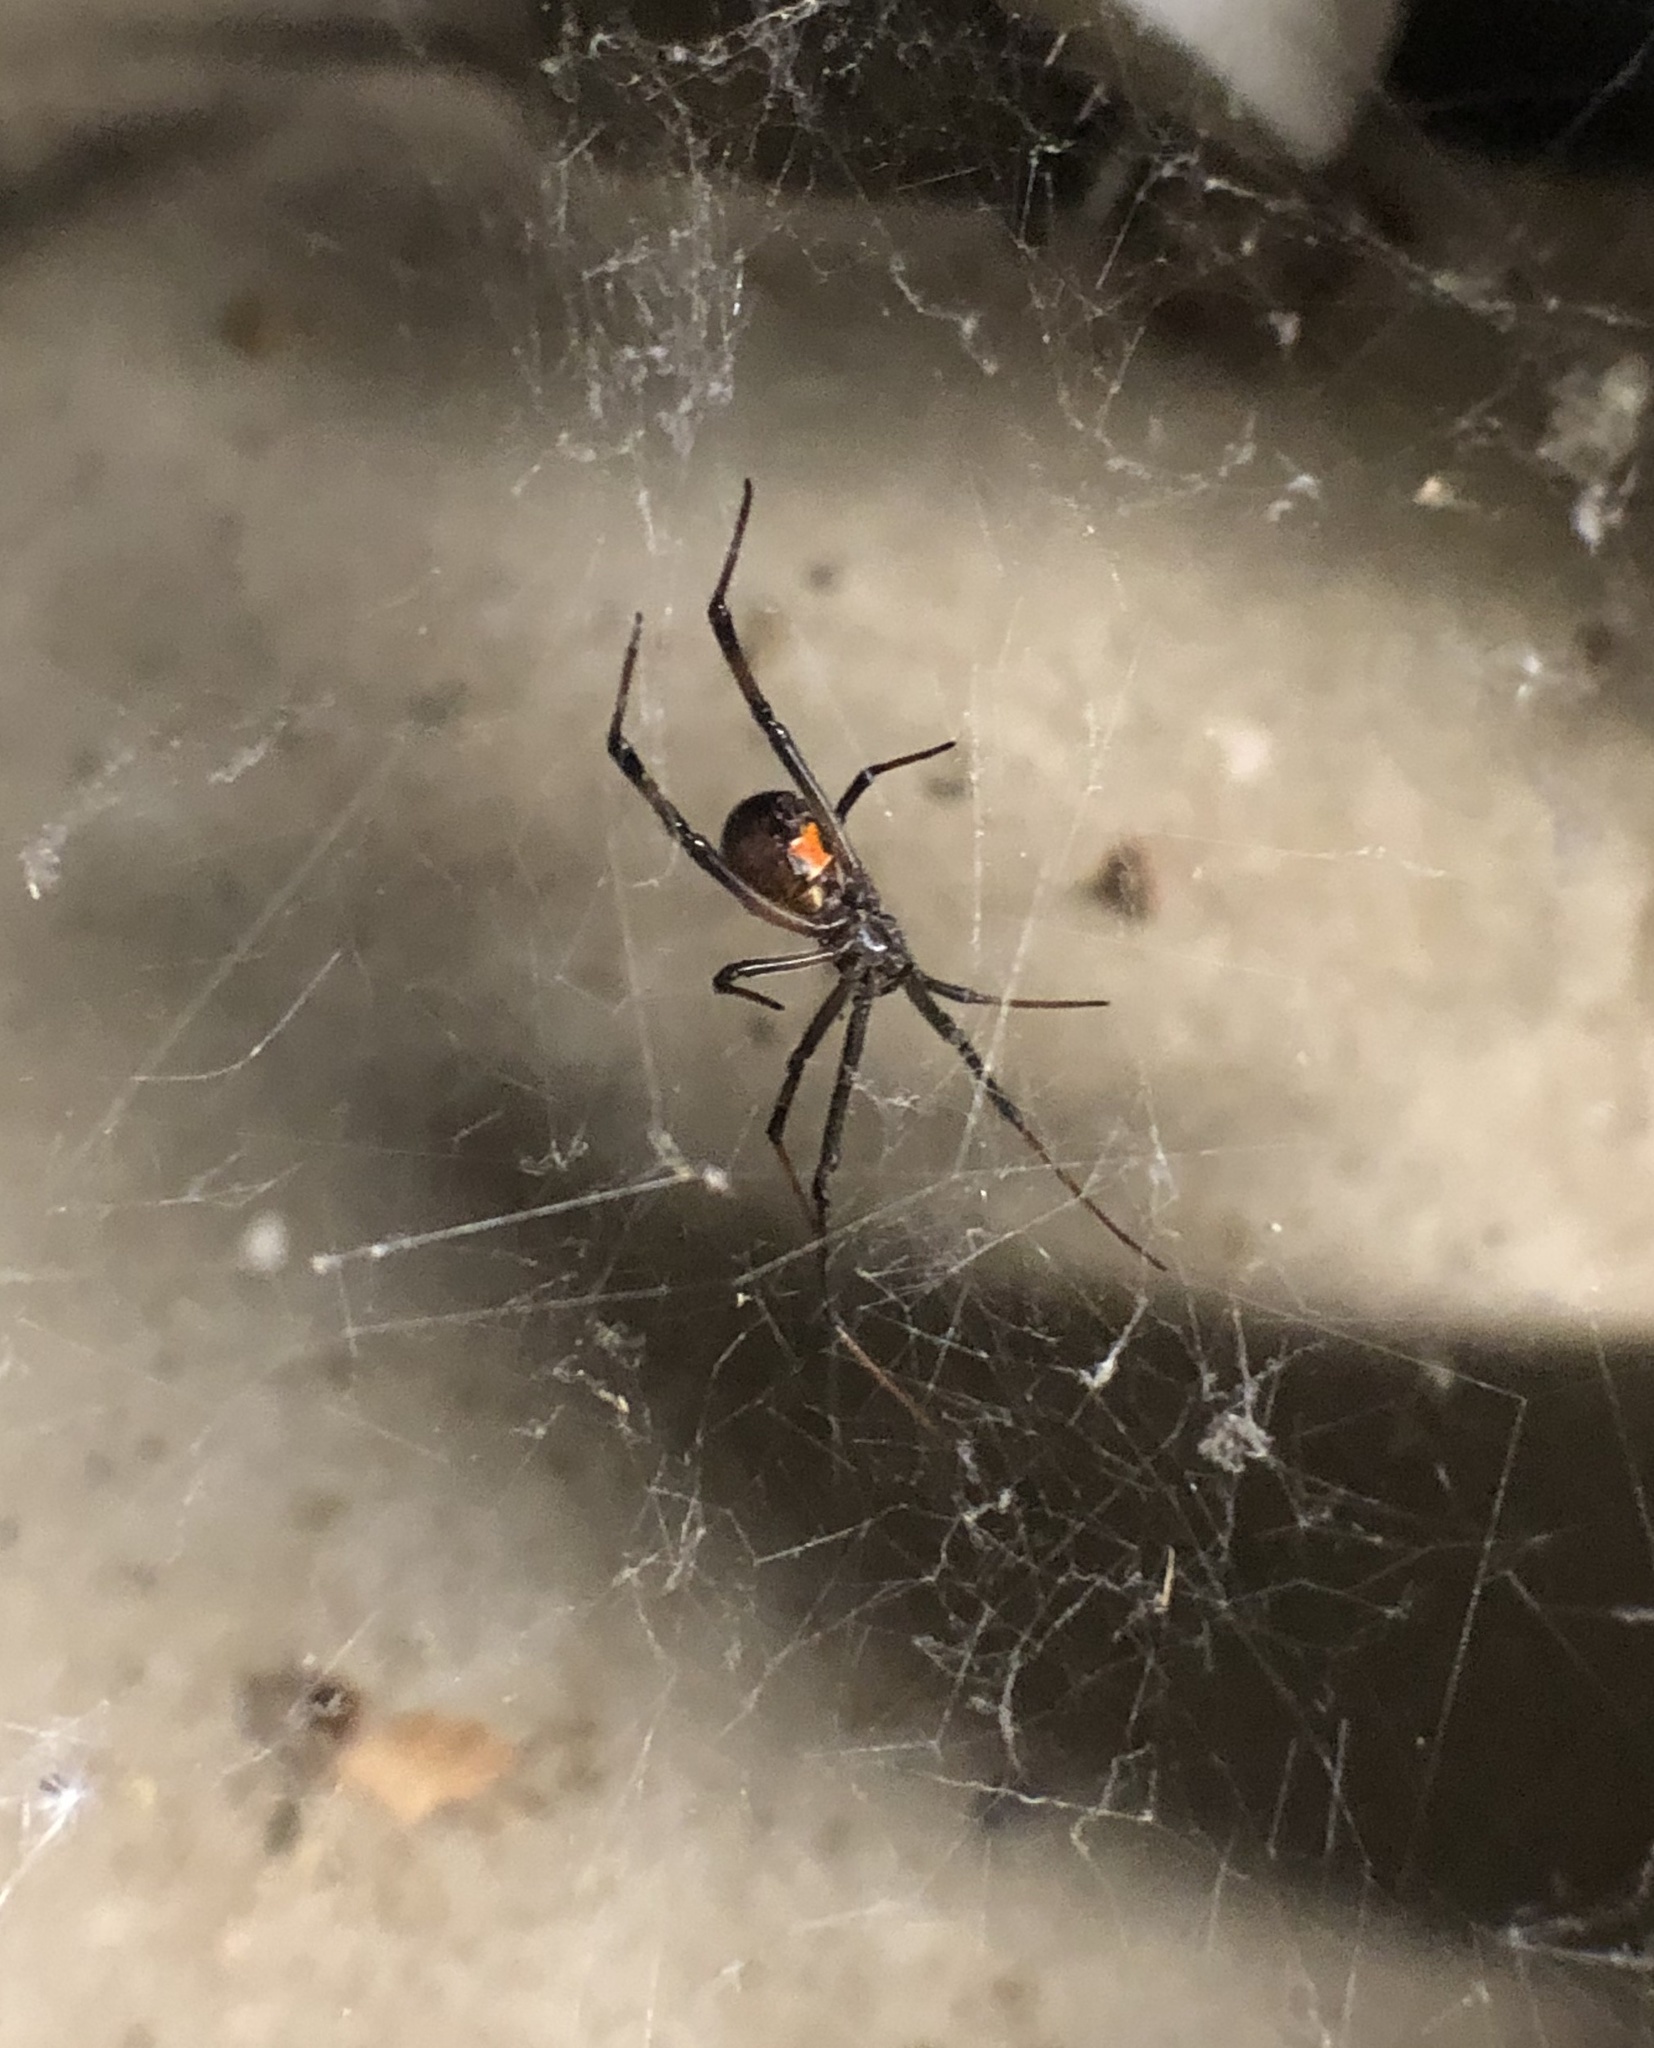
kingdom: Animalia
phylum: Arthropoda
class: Arachnida
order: Araneae
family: Theridiidae
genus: Latrodectus
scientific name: Latrodectus geometricus
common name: Brown widow spider
